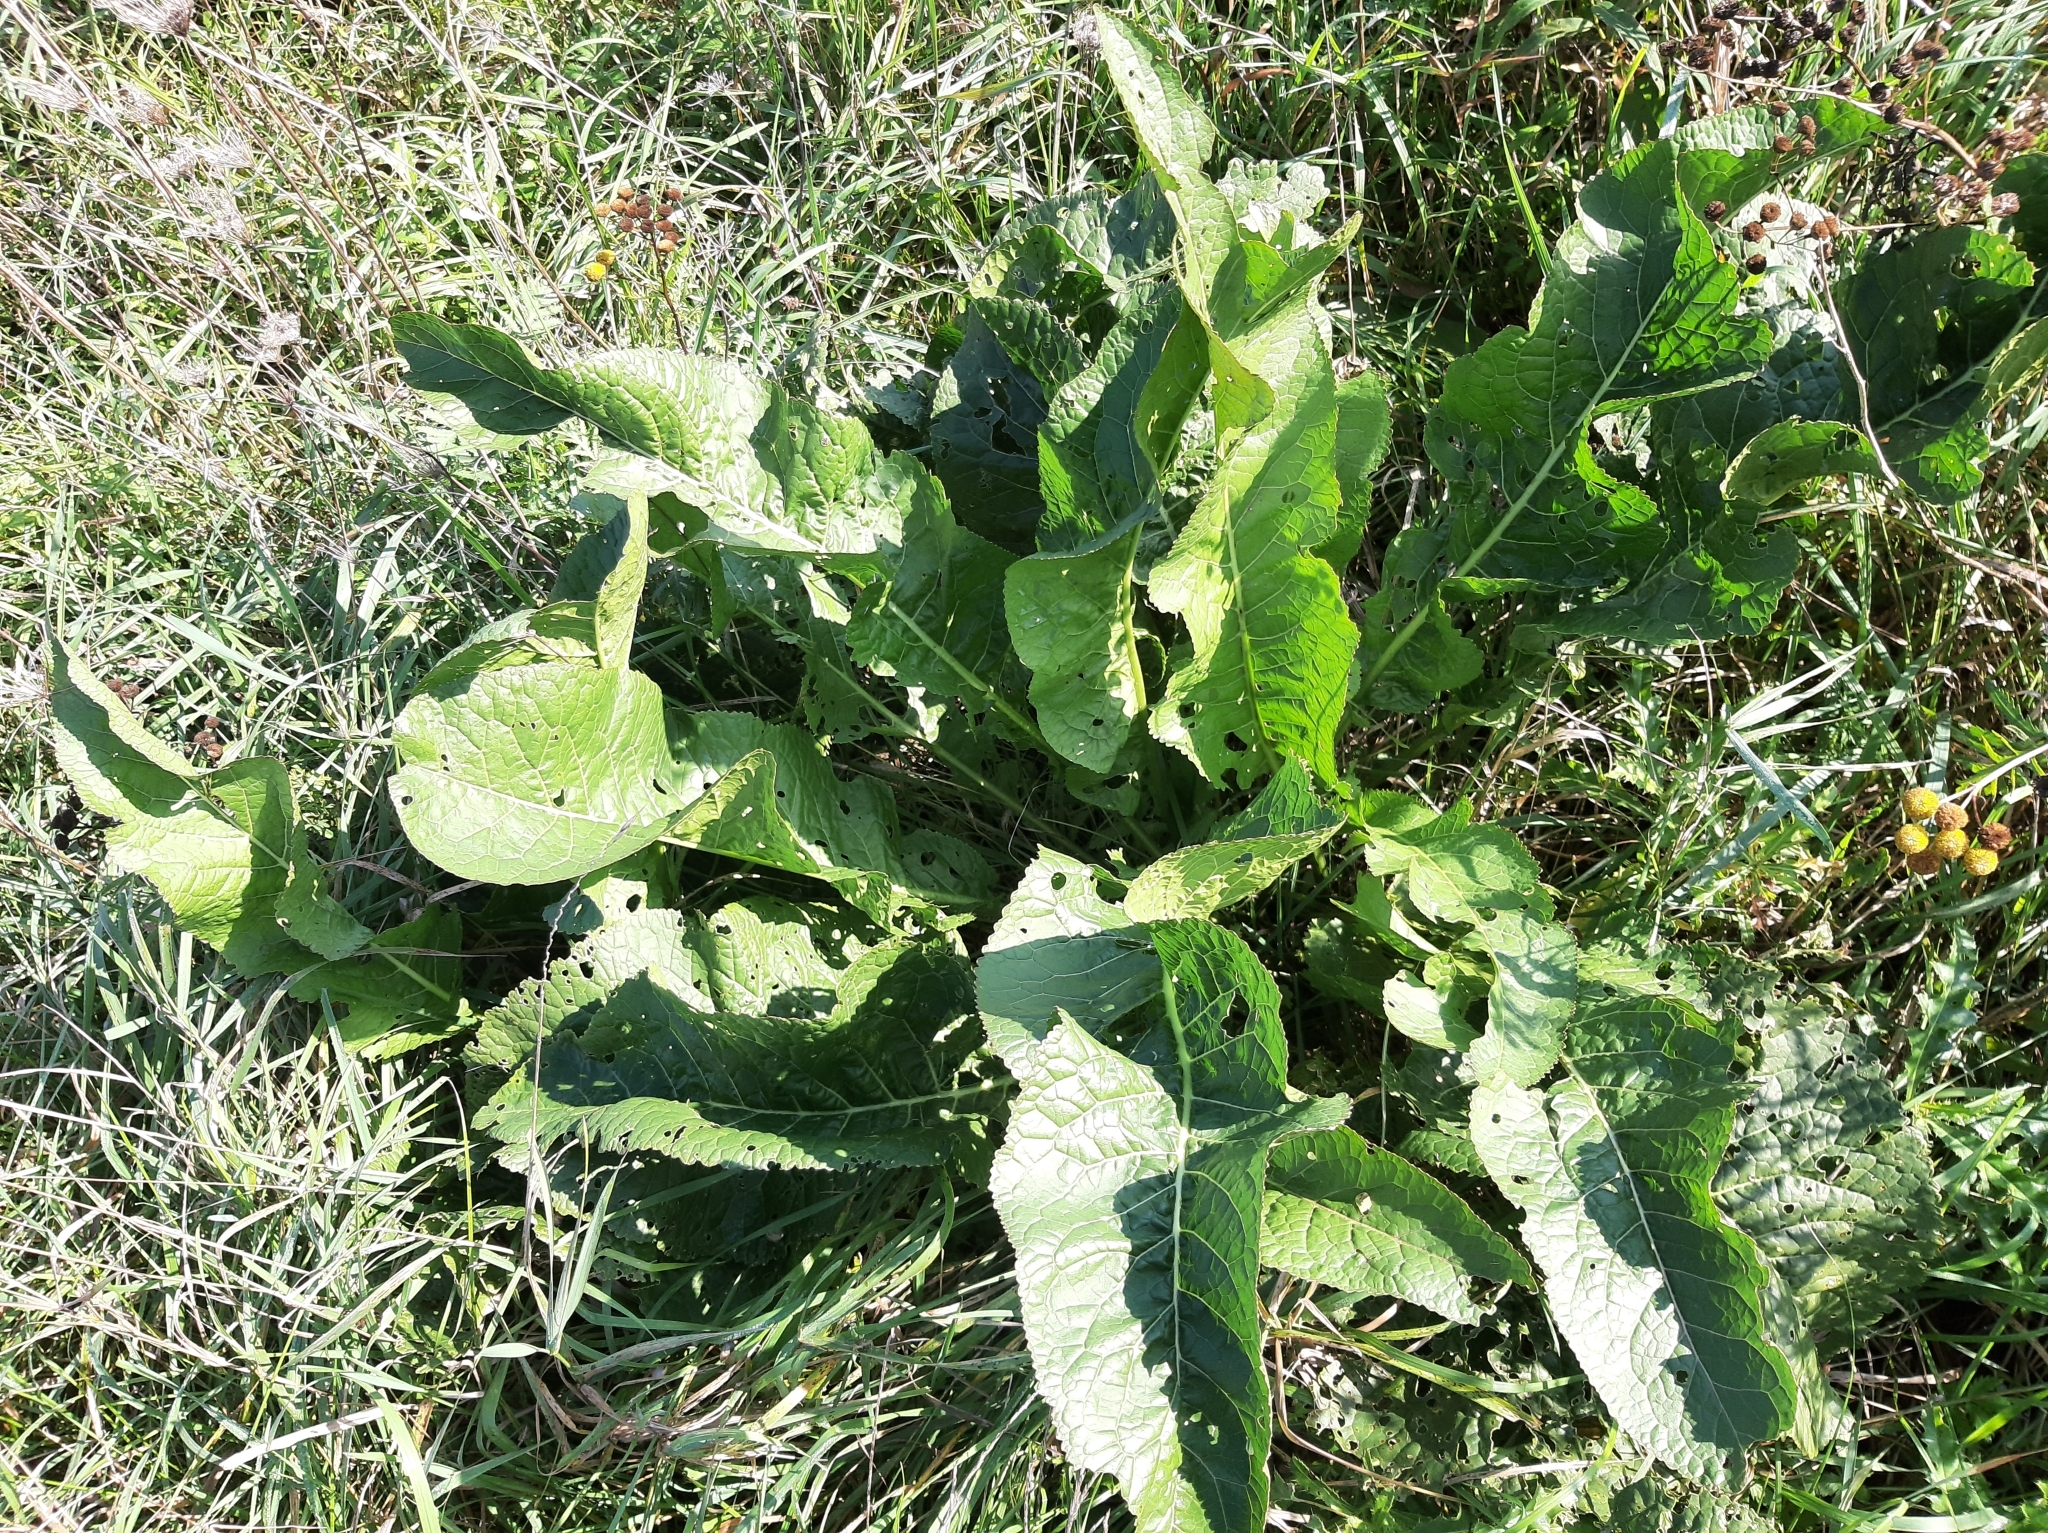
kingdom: Plantae
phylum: Tracheophyta
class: Magnoliopsida
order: Brassicales
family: Brassicaceae
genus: Armoracia
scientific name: Armoracia rusticana
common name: Horseradish
